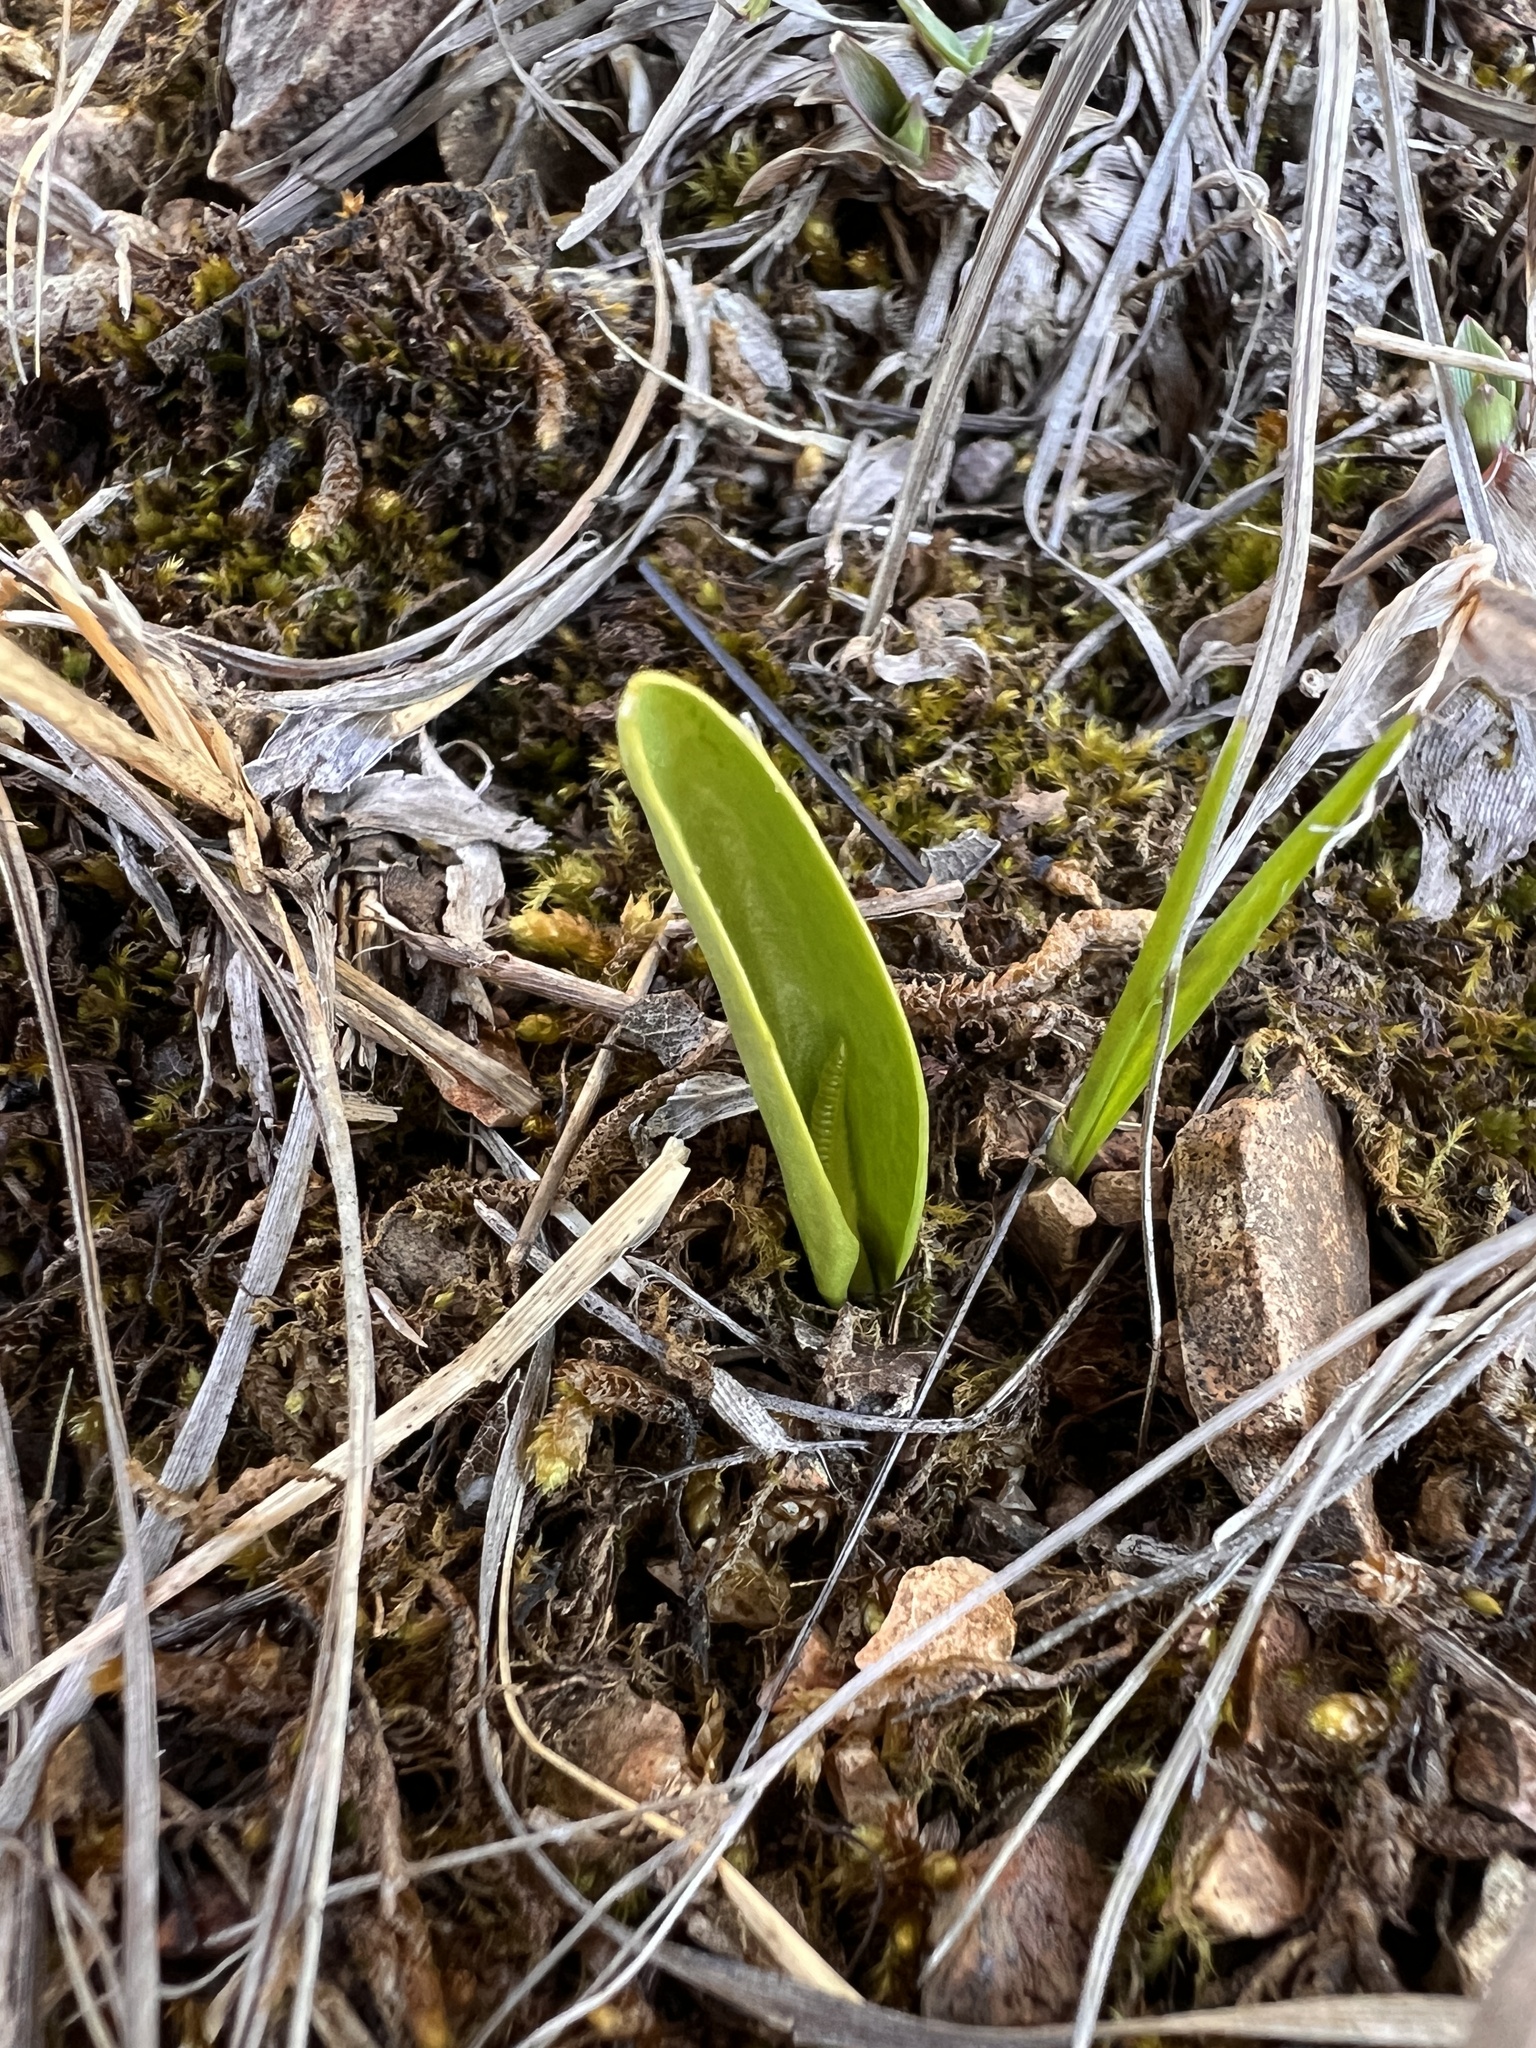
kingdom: Plantae
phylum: Tracheophyta
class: Polypodiopsida
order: Ophioglossales
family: Ophioglossaceae
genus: Ophioglossum
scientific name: Ophioglossum engelmannii
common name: Limestone adder's-tongue
